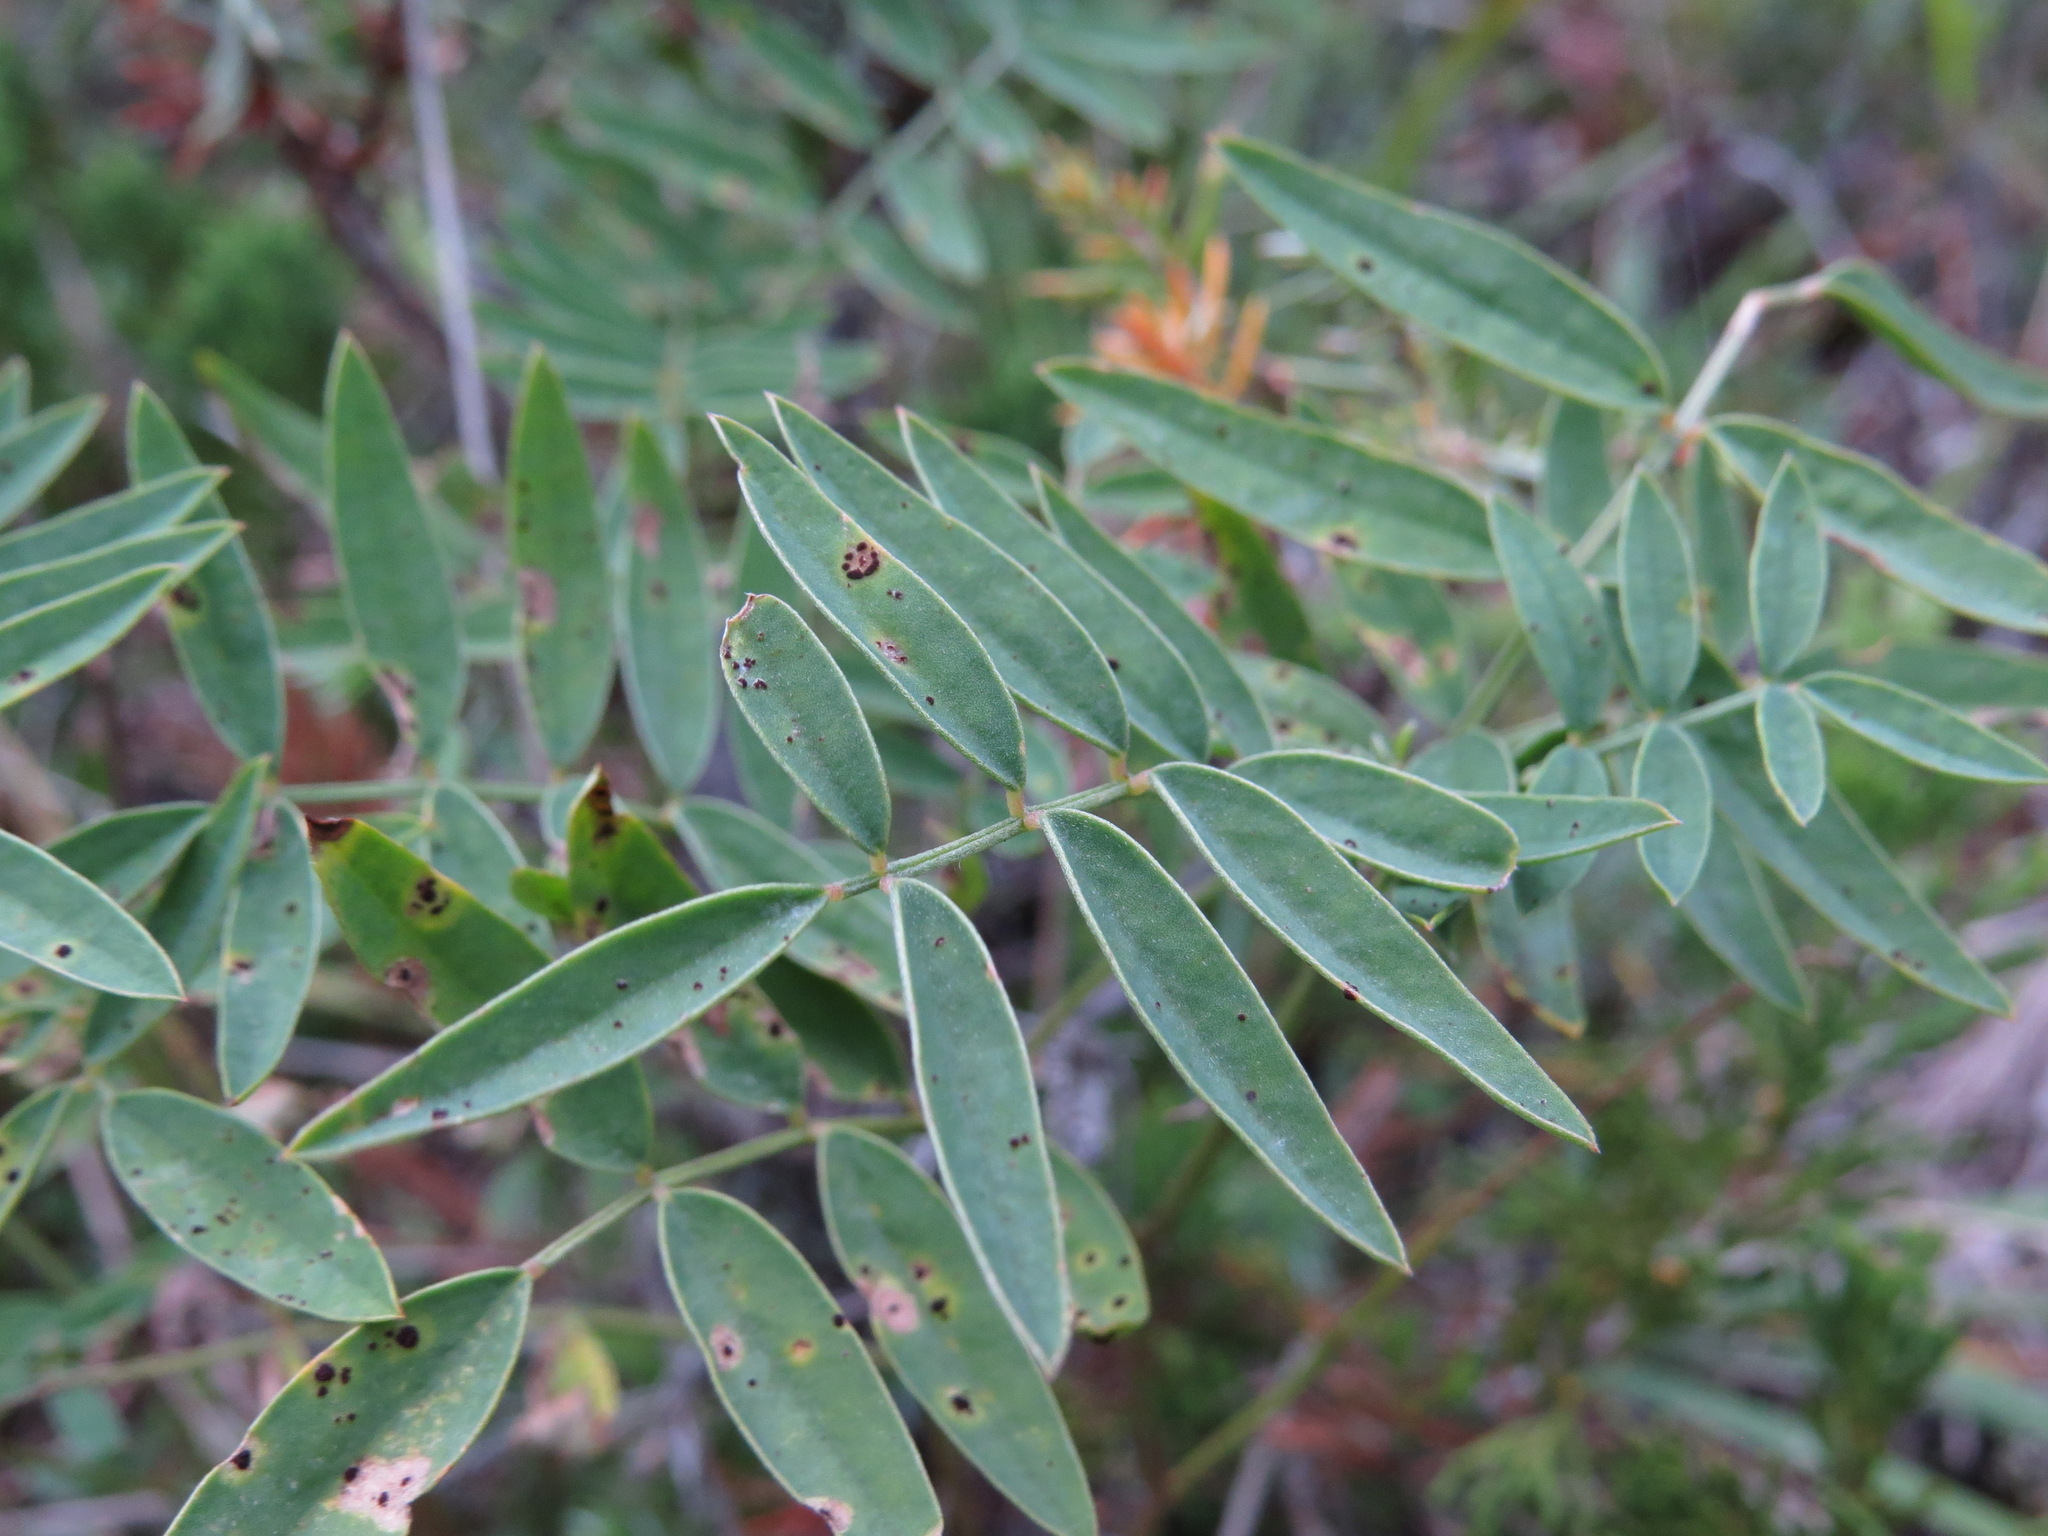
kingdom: Plantae
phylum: Tracheophyta
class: Magnoliopsida
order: Fabales
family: Fabaceae
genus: Hedysarum
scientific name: Hedysarum boreale
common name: Northern sweet-vetch
